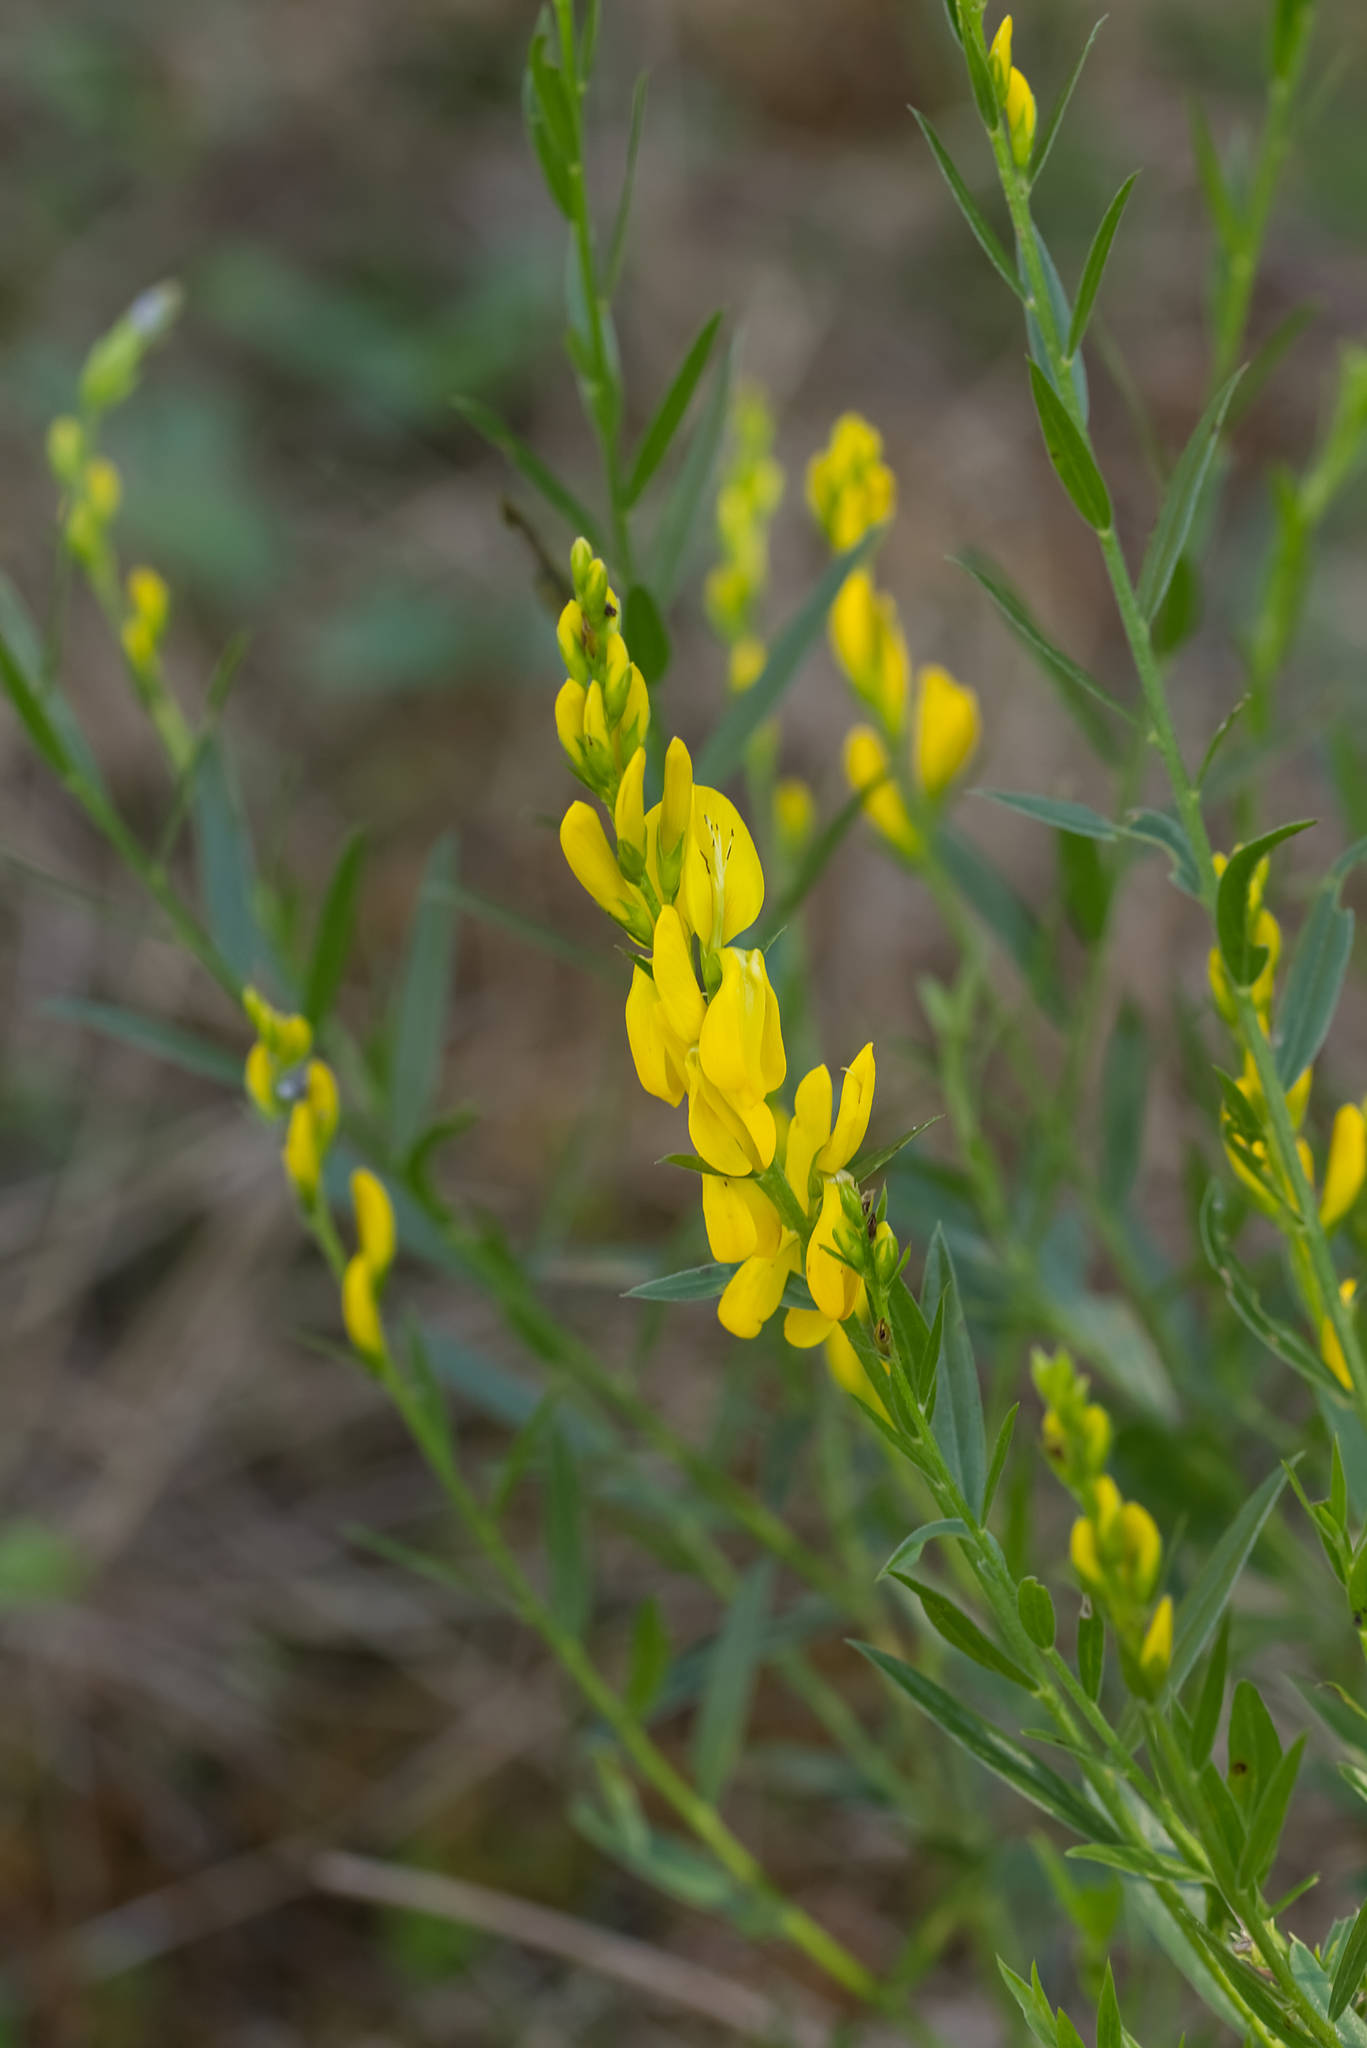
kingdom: Plantae
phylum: Tracheophyta
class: Magnoliopsida
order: Fabales
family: Fabaceae
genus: Genista
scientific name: Genista tinctoria
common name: Dyer's greenweed
